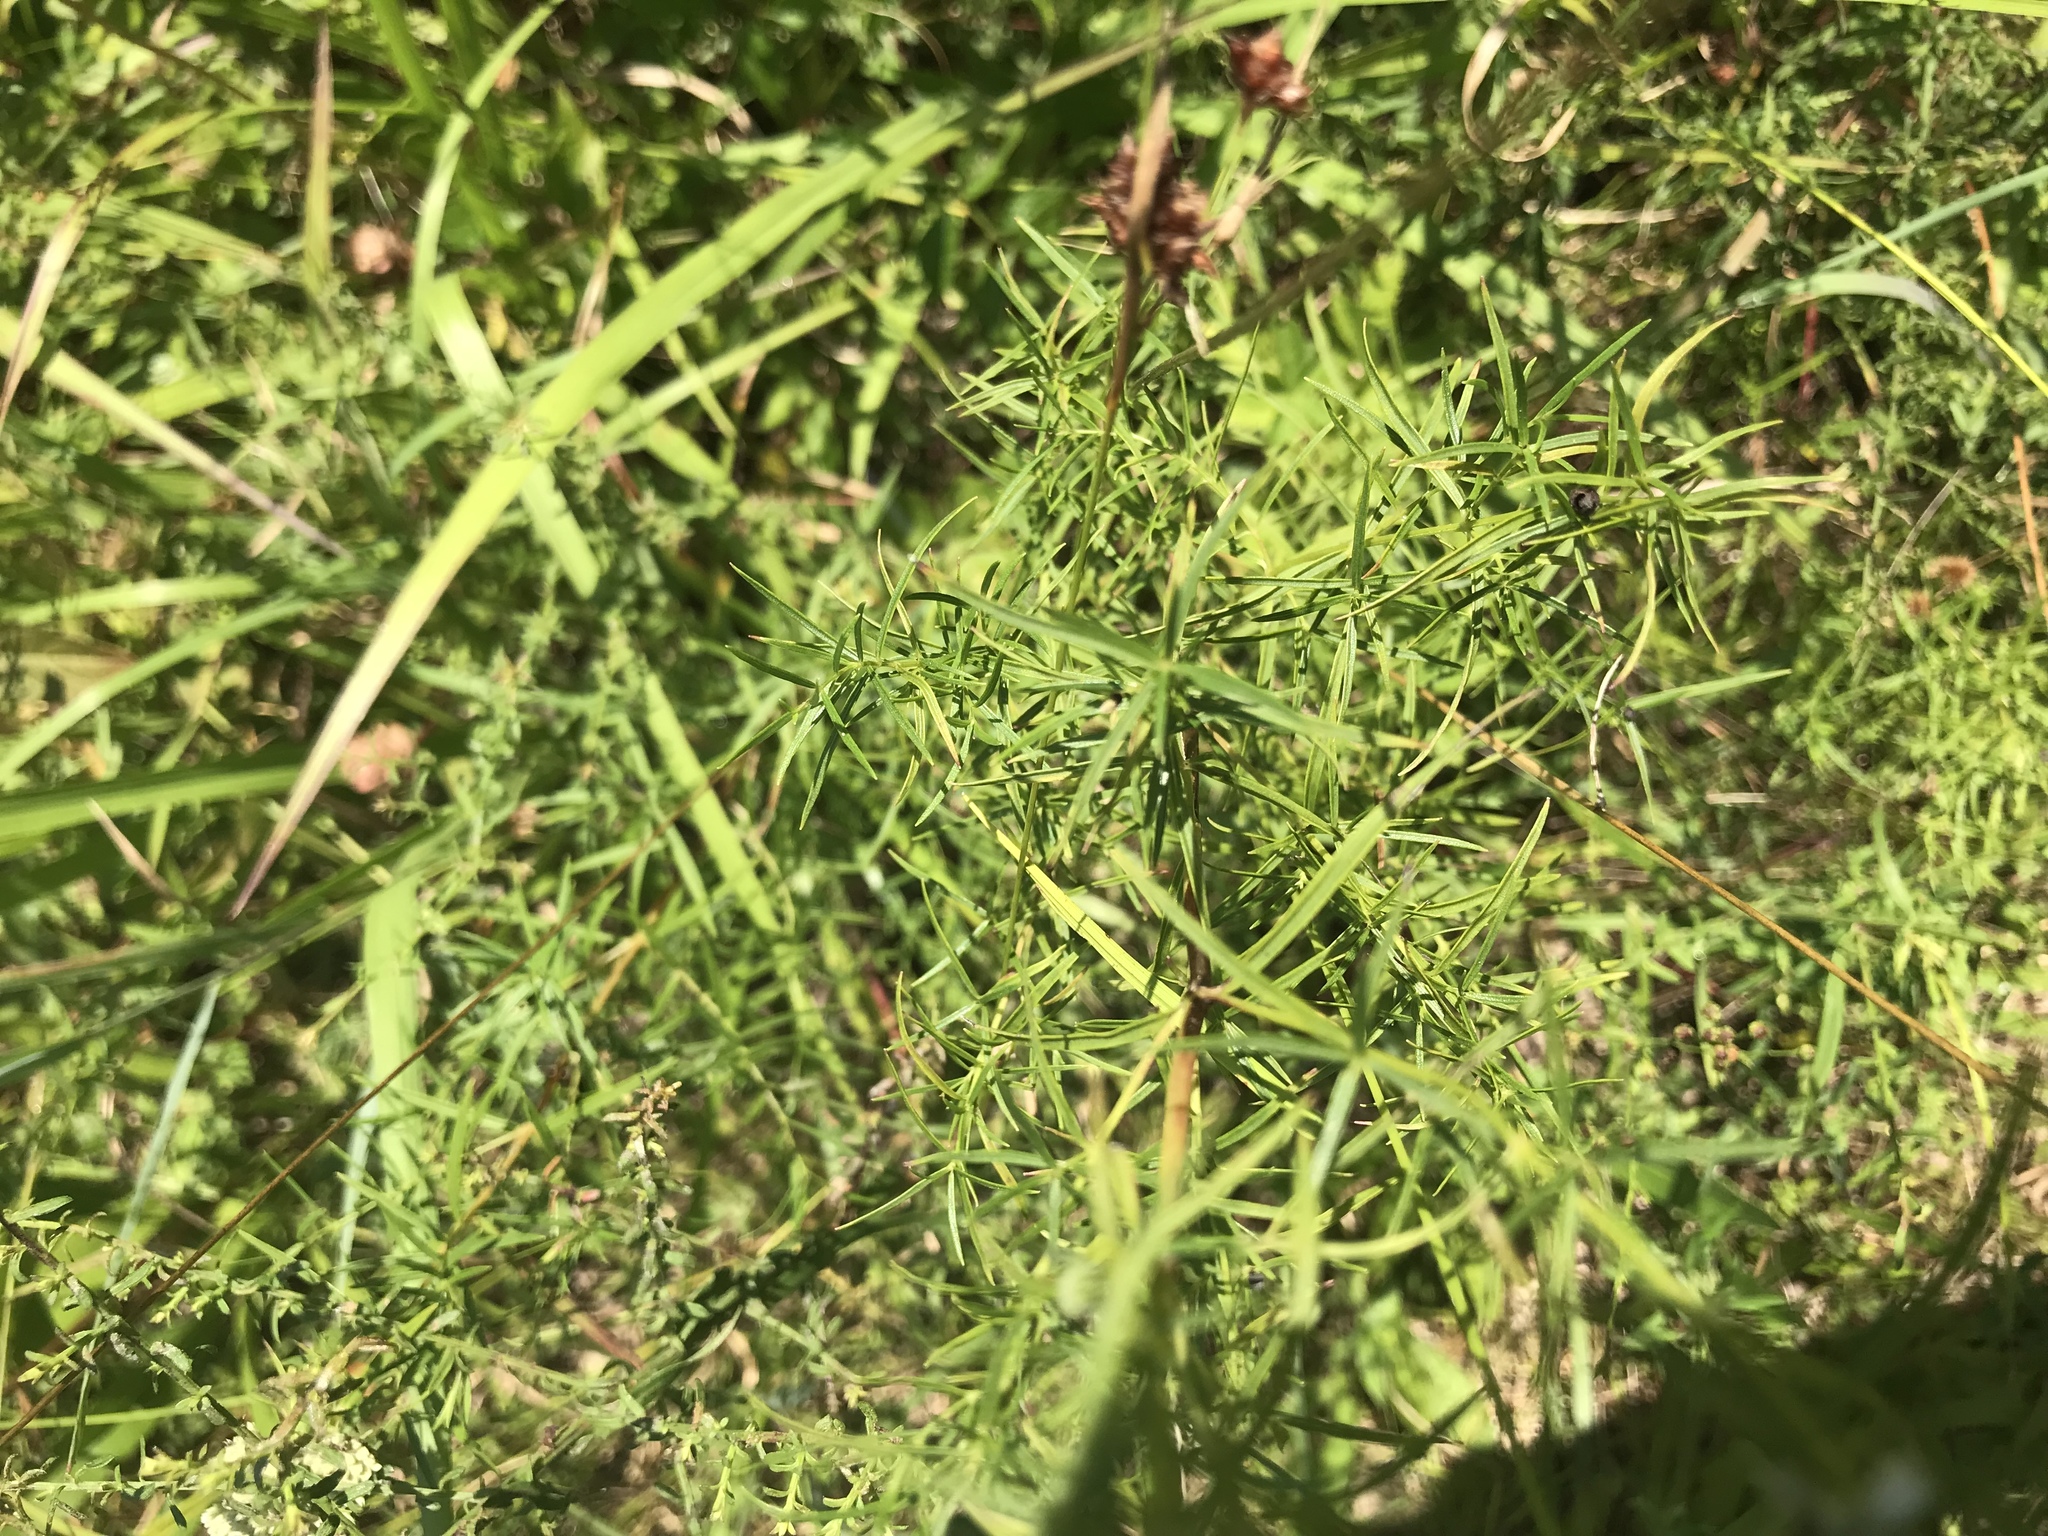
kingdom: Plantae
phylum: Tracheophyta
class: Magnoliopsida
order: Lamiales
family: Lamiaceae
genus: Pycnanthemum
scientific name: Pycnanthemum tenuifolium
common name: Narrow-leaf mountain-mint
